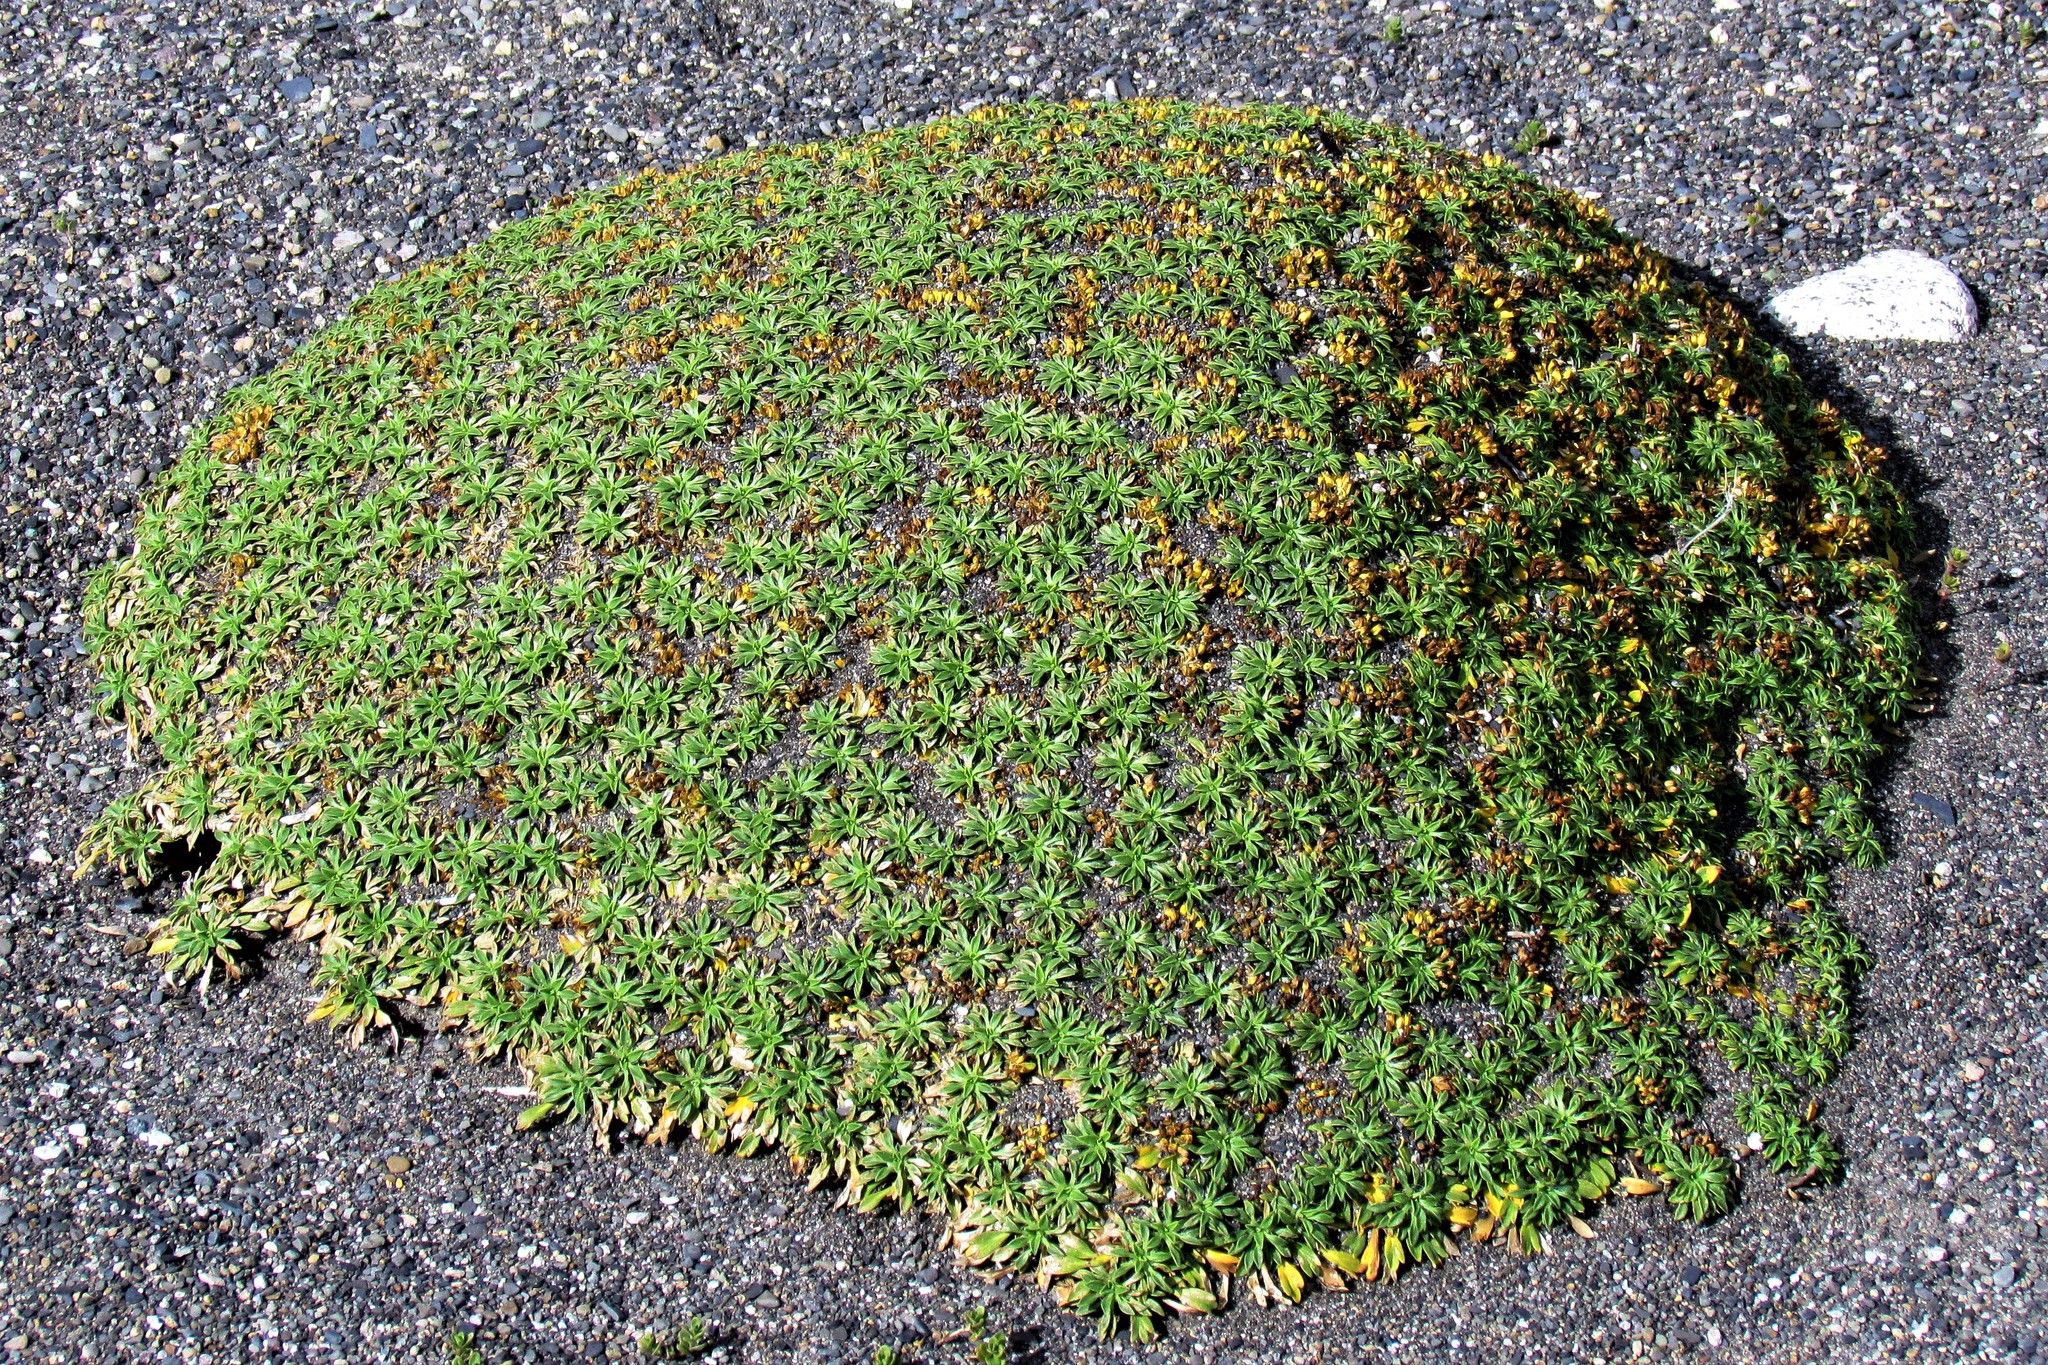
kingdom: Plantae
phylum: Tracheophyta
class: Magnoliopsida
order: Apiales
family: Apiaceae
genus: Azorella
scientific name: Azorella patagonica
